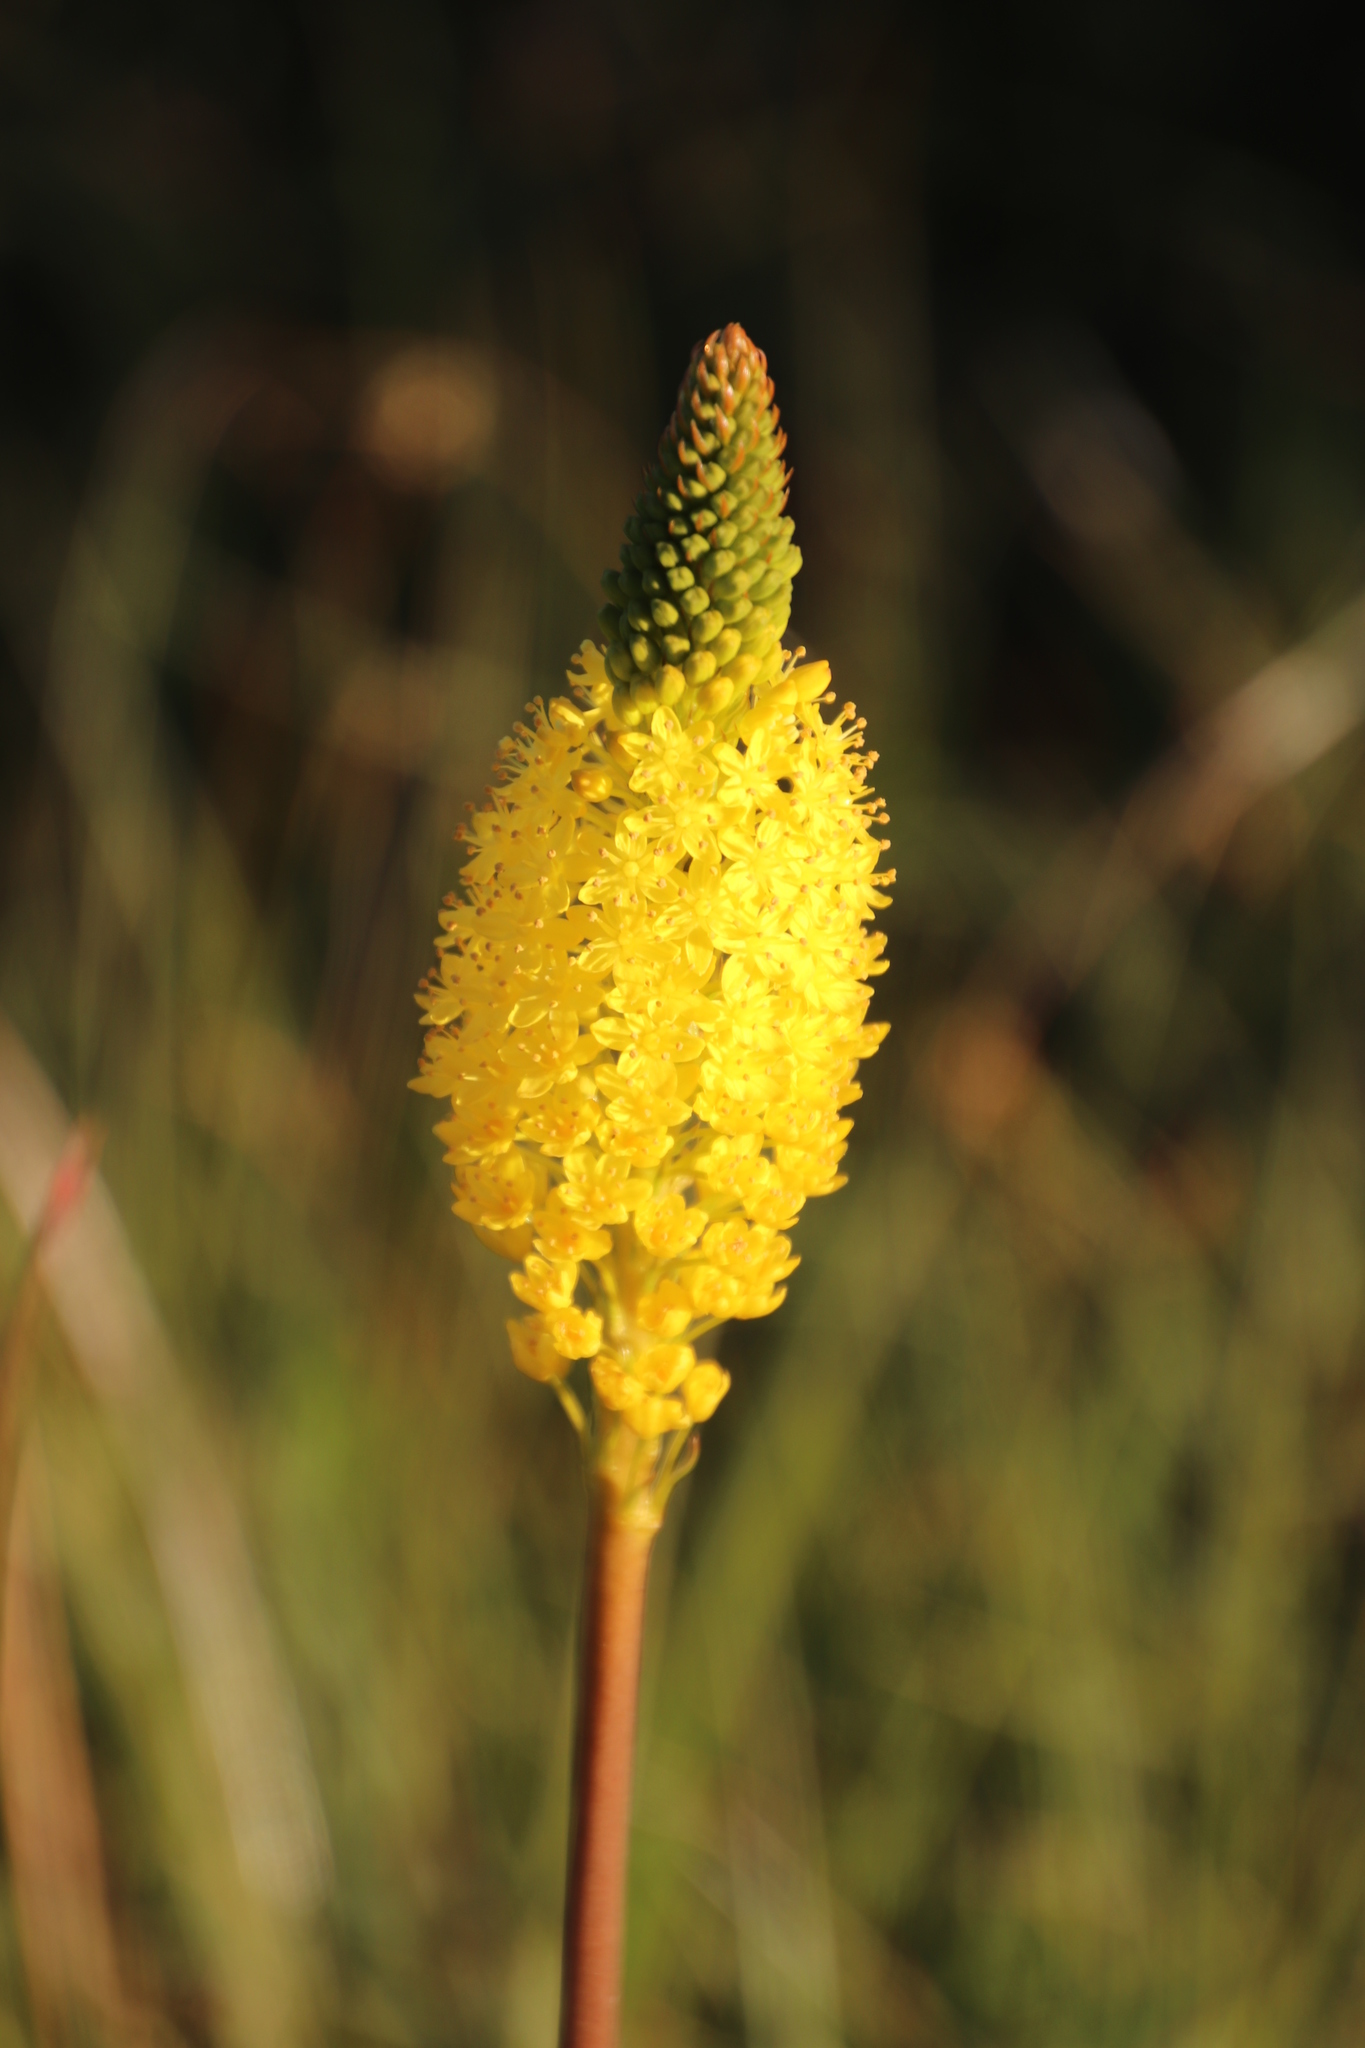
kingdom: Plantae
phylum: Tracheophyta
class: Liliopsida
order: Asparagales
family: Asphodelaceae
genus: Bulbinella
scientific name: Bulbinella nutans
